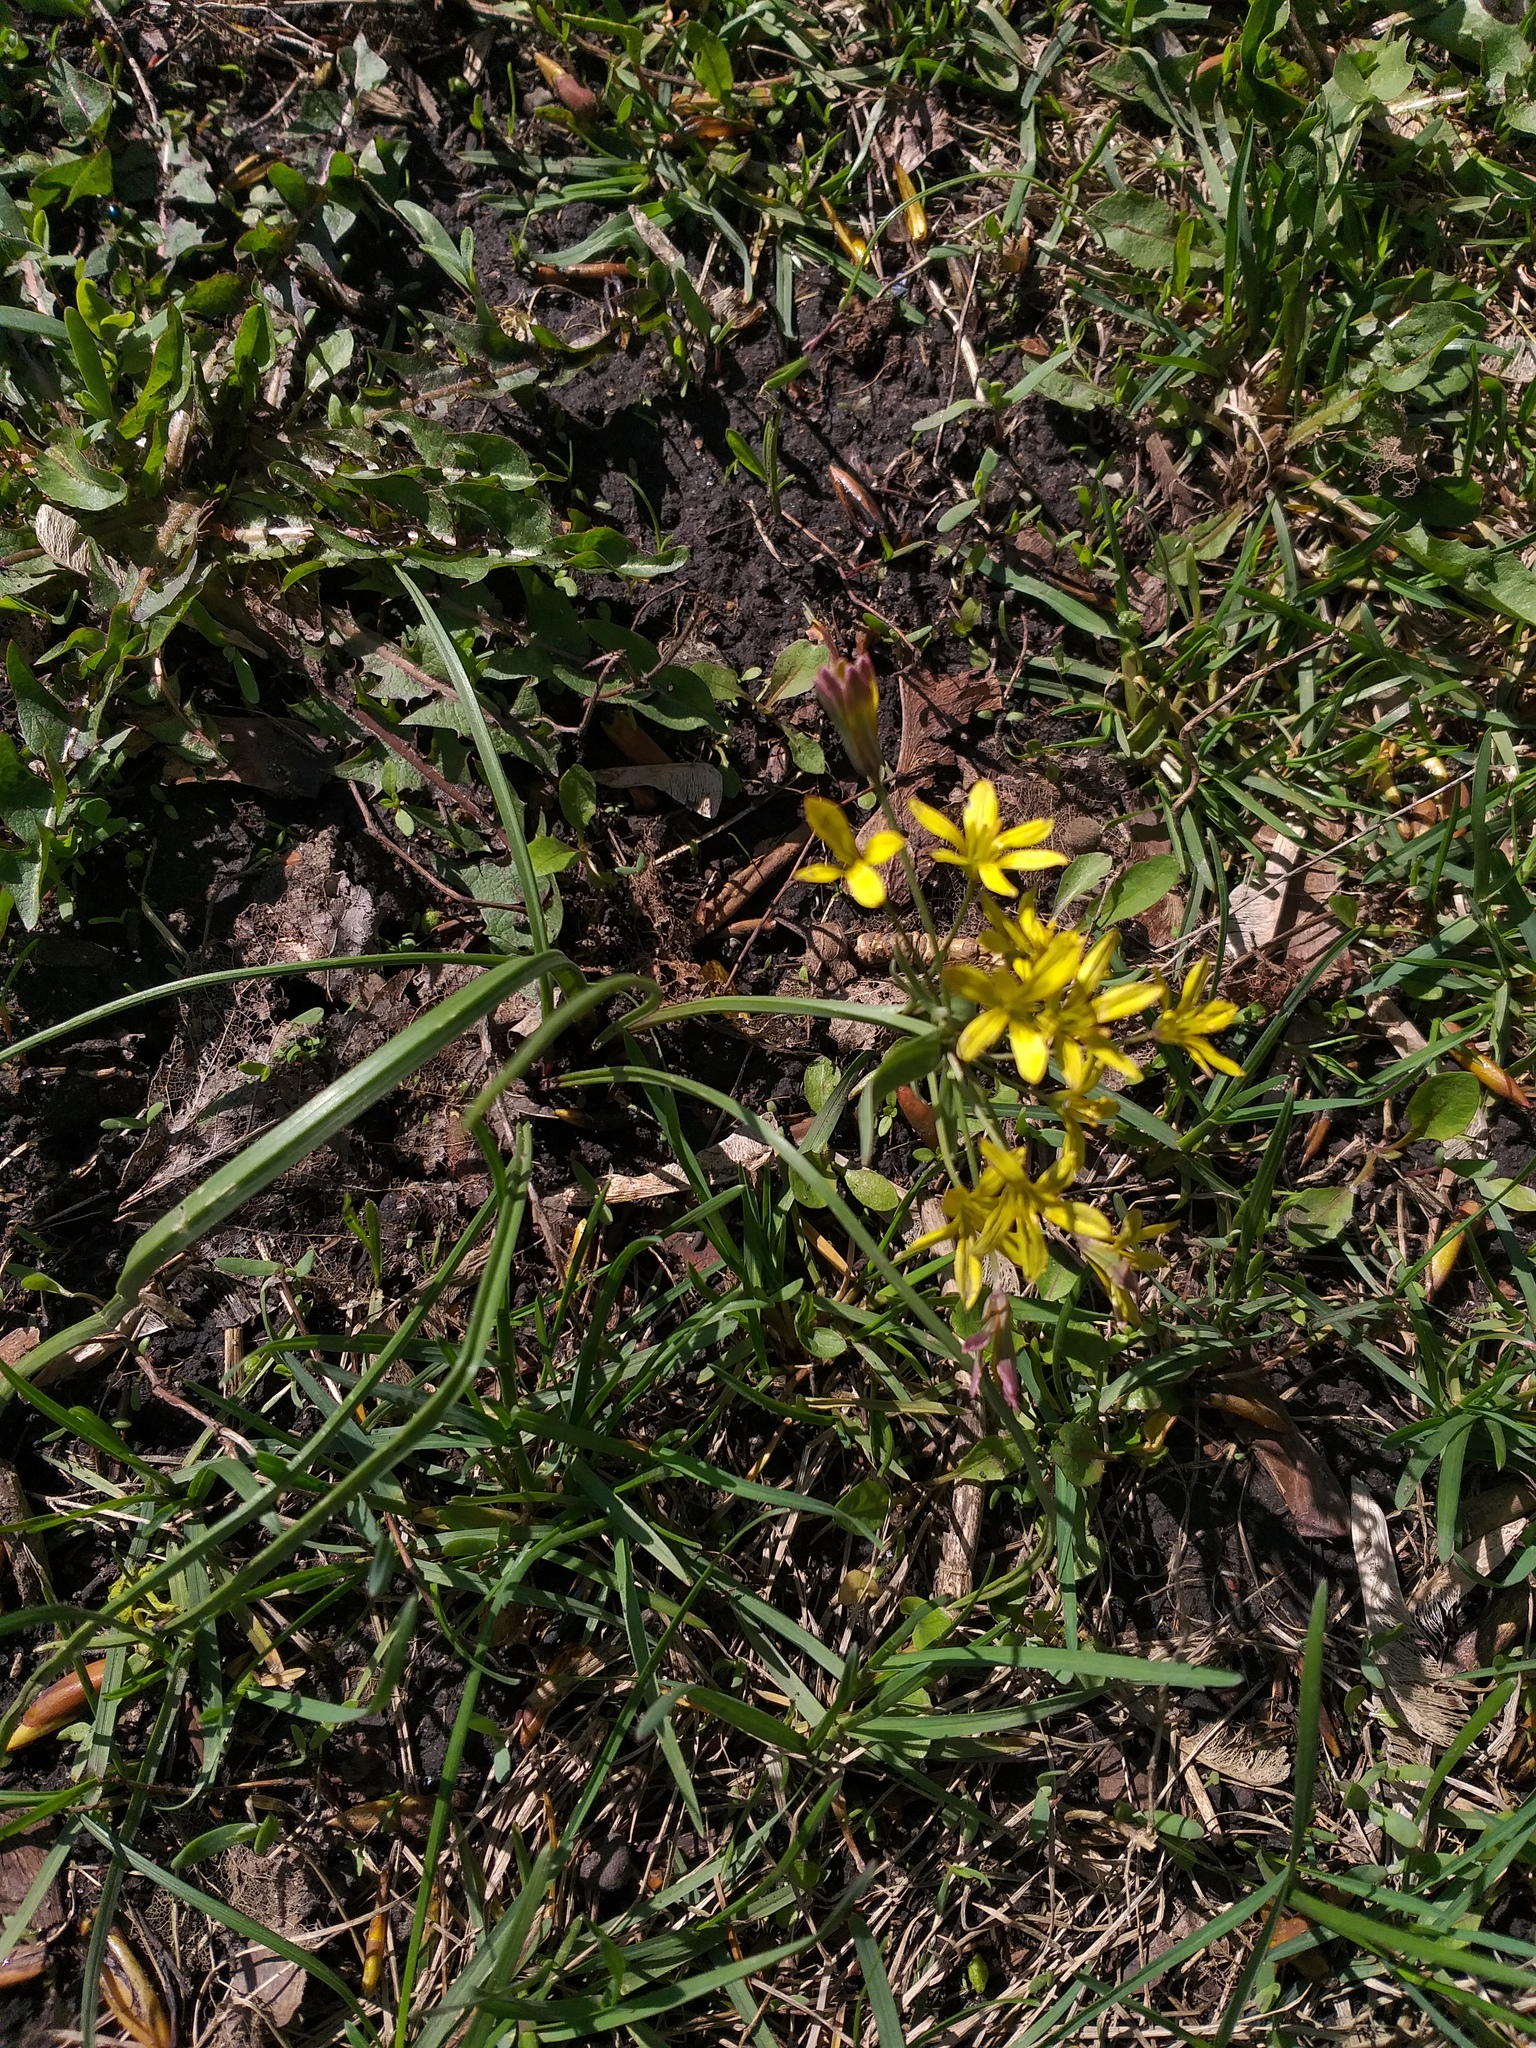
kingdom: Plantae
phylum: Tracheophyta
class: Liliopsida
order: Liliales
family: Liliaceae
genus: Gagea
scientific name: Gagea fragifera
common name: Lily
